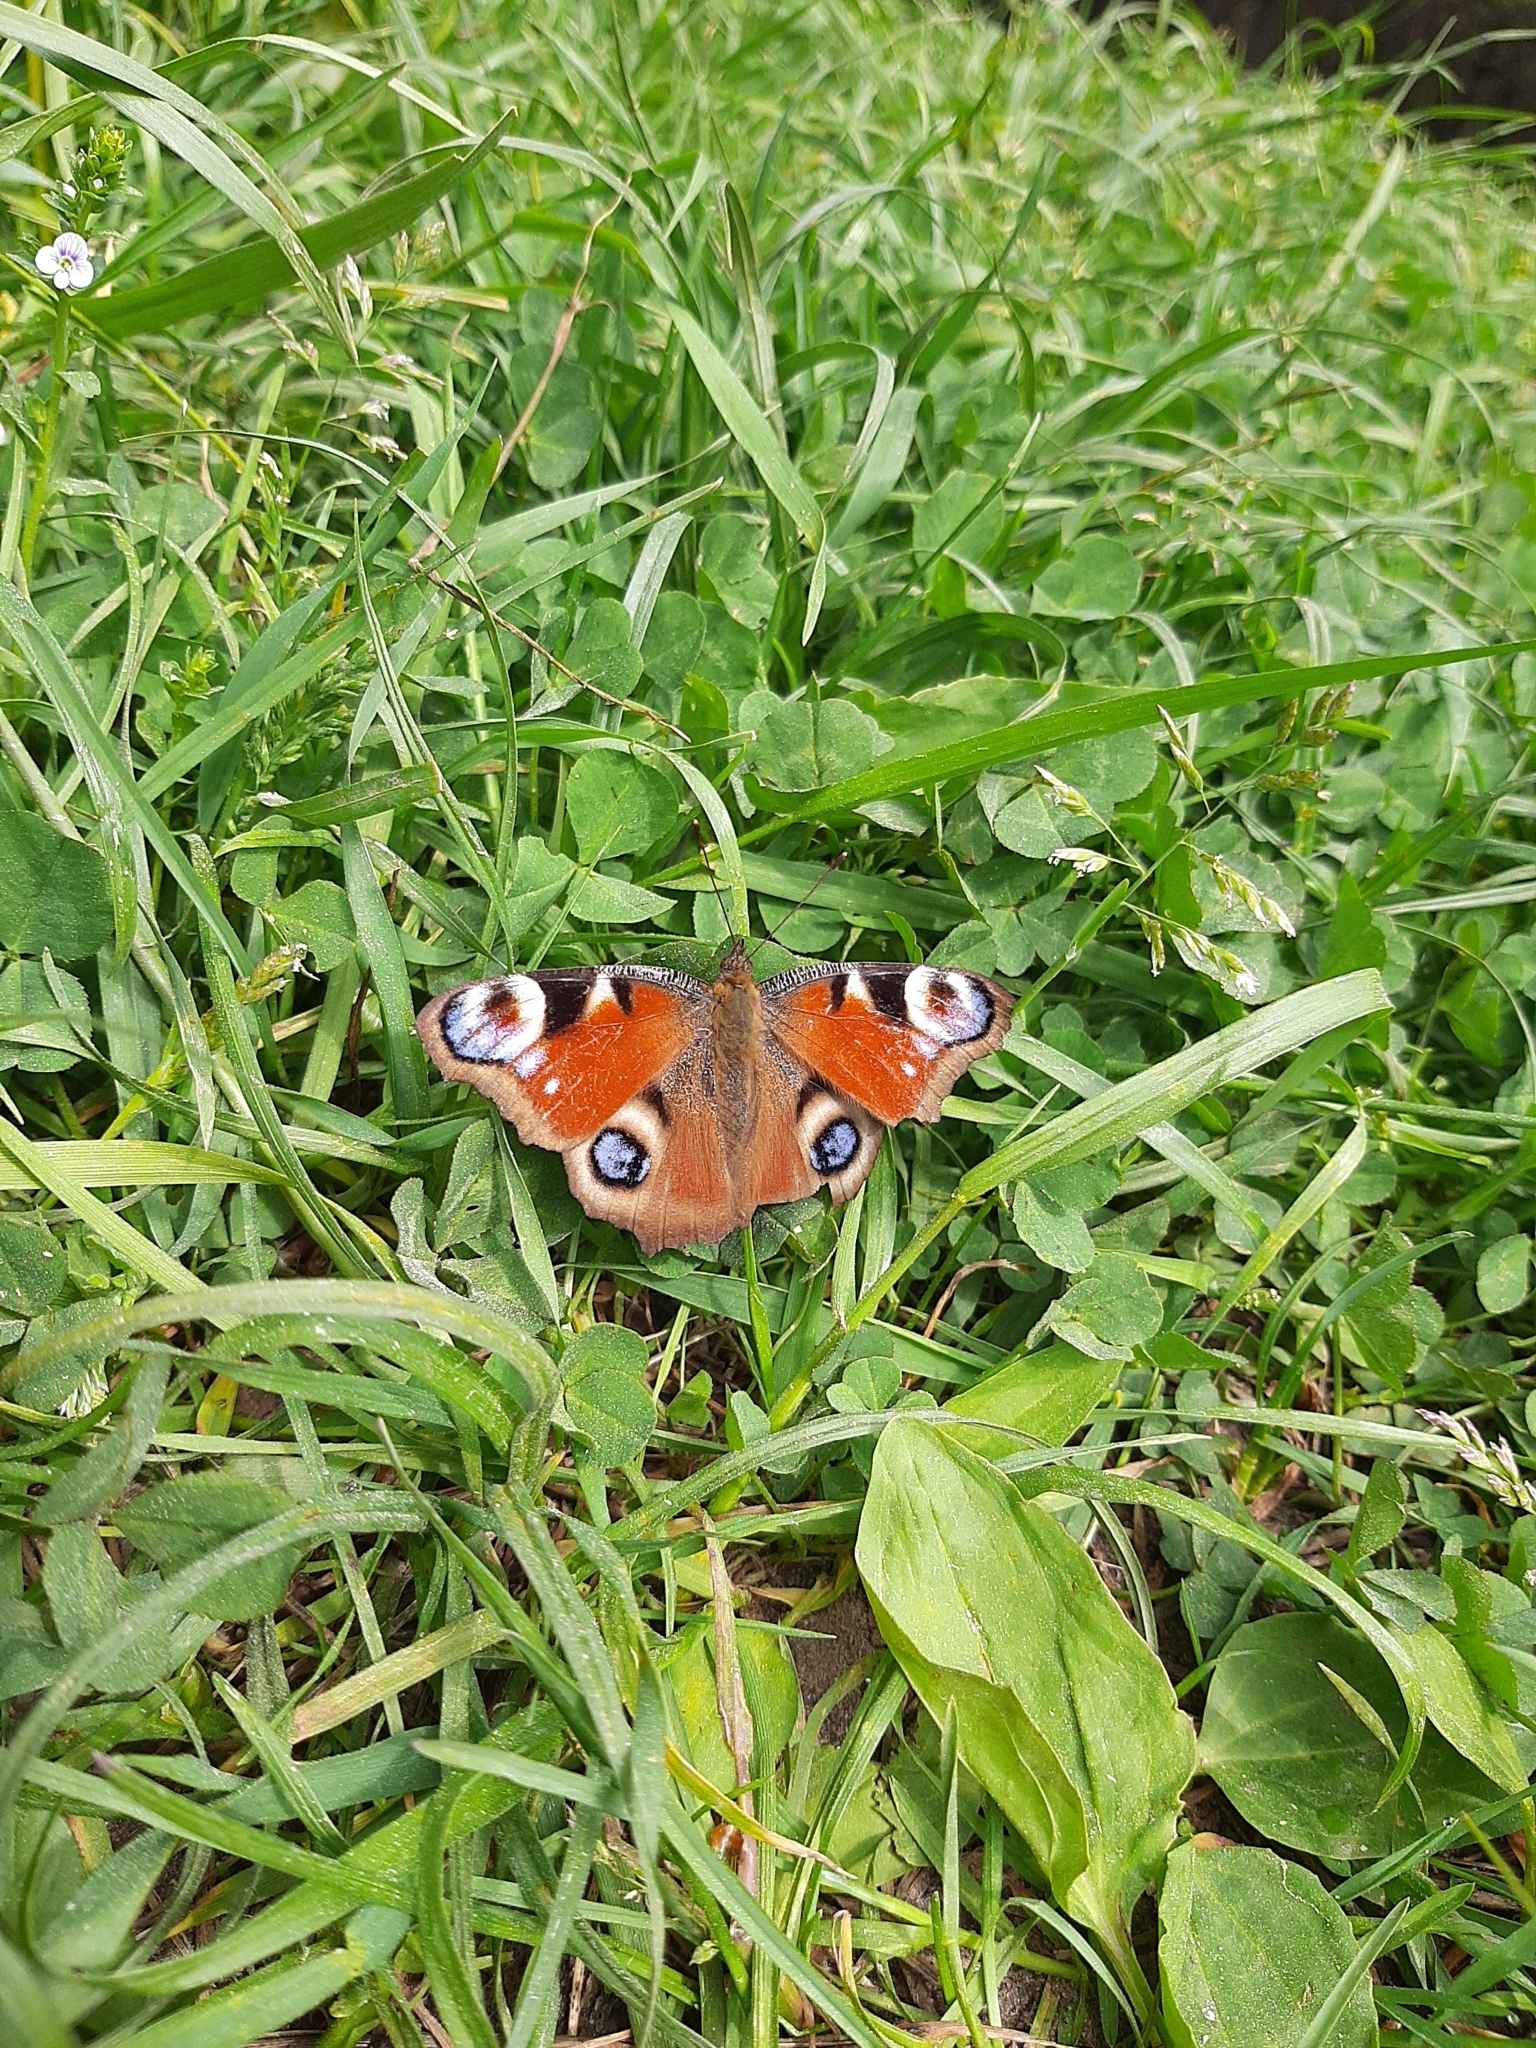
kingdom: Animalia
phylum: Arthropoda
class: Insecta
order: Lepidoptera
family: Nymphalidae
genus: Aglais
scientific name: Aglais io
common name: Peacock
